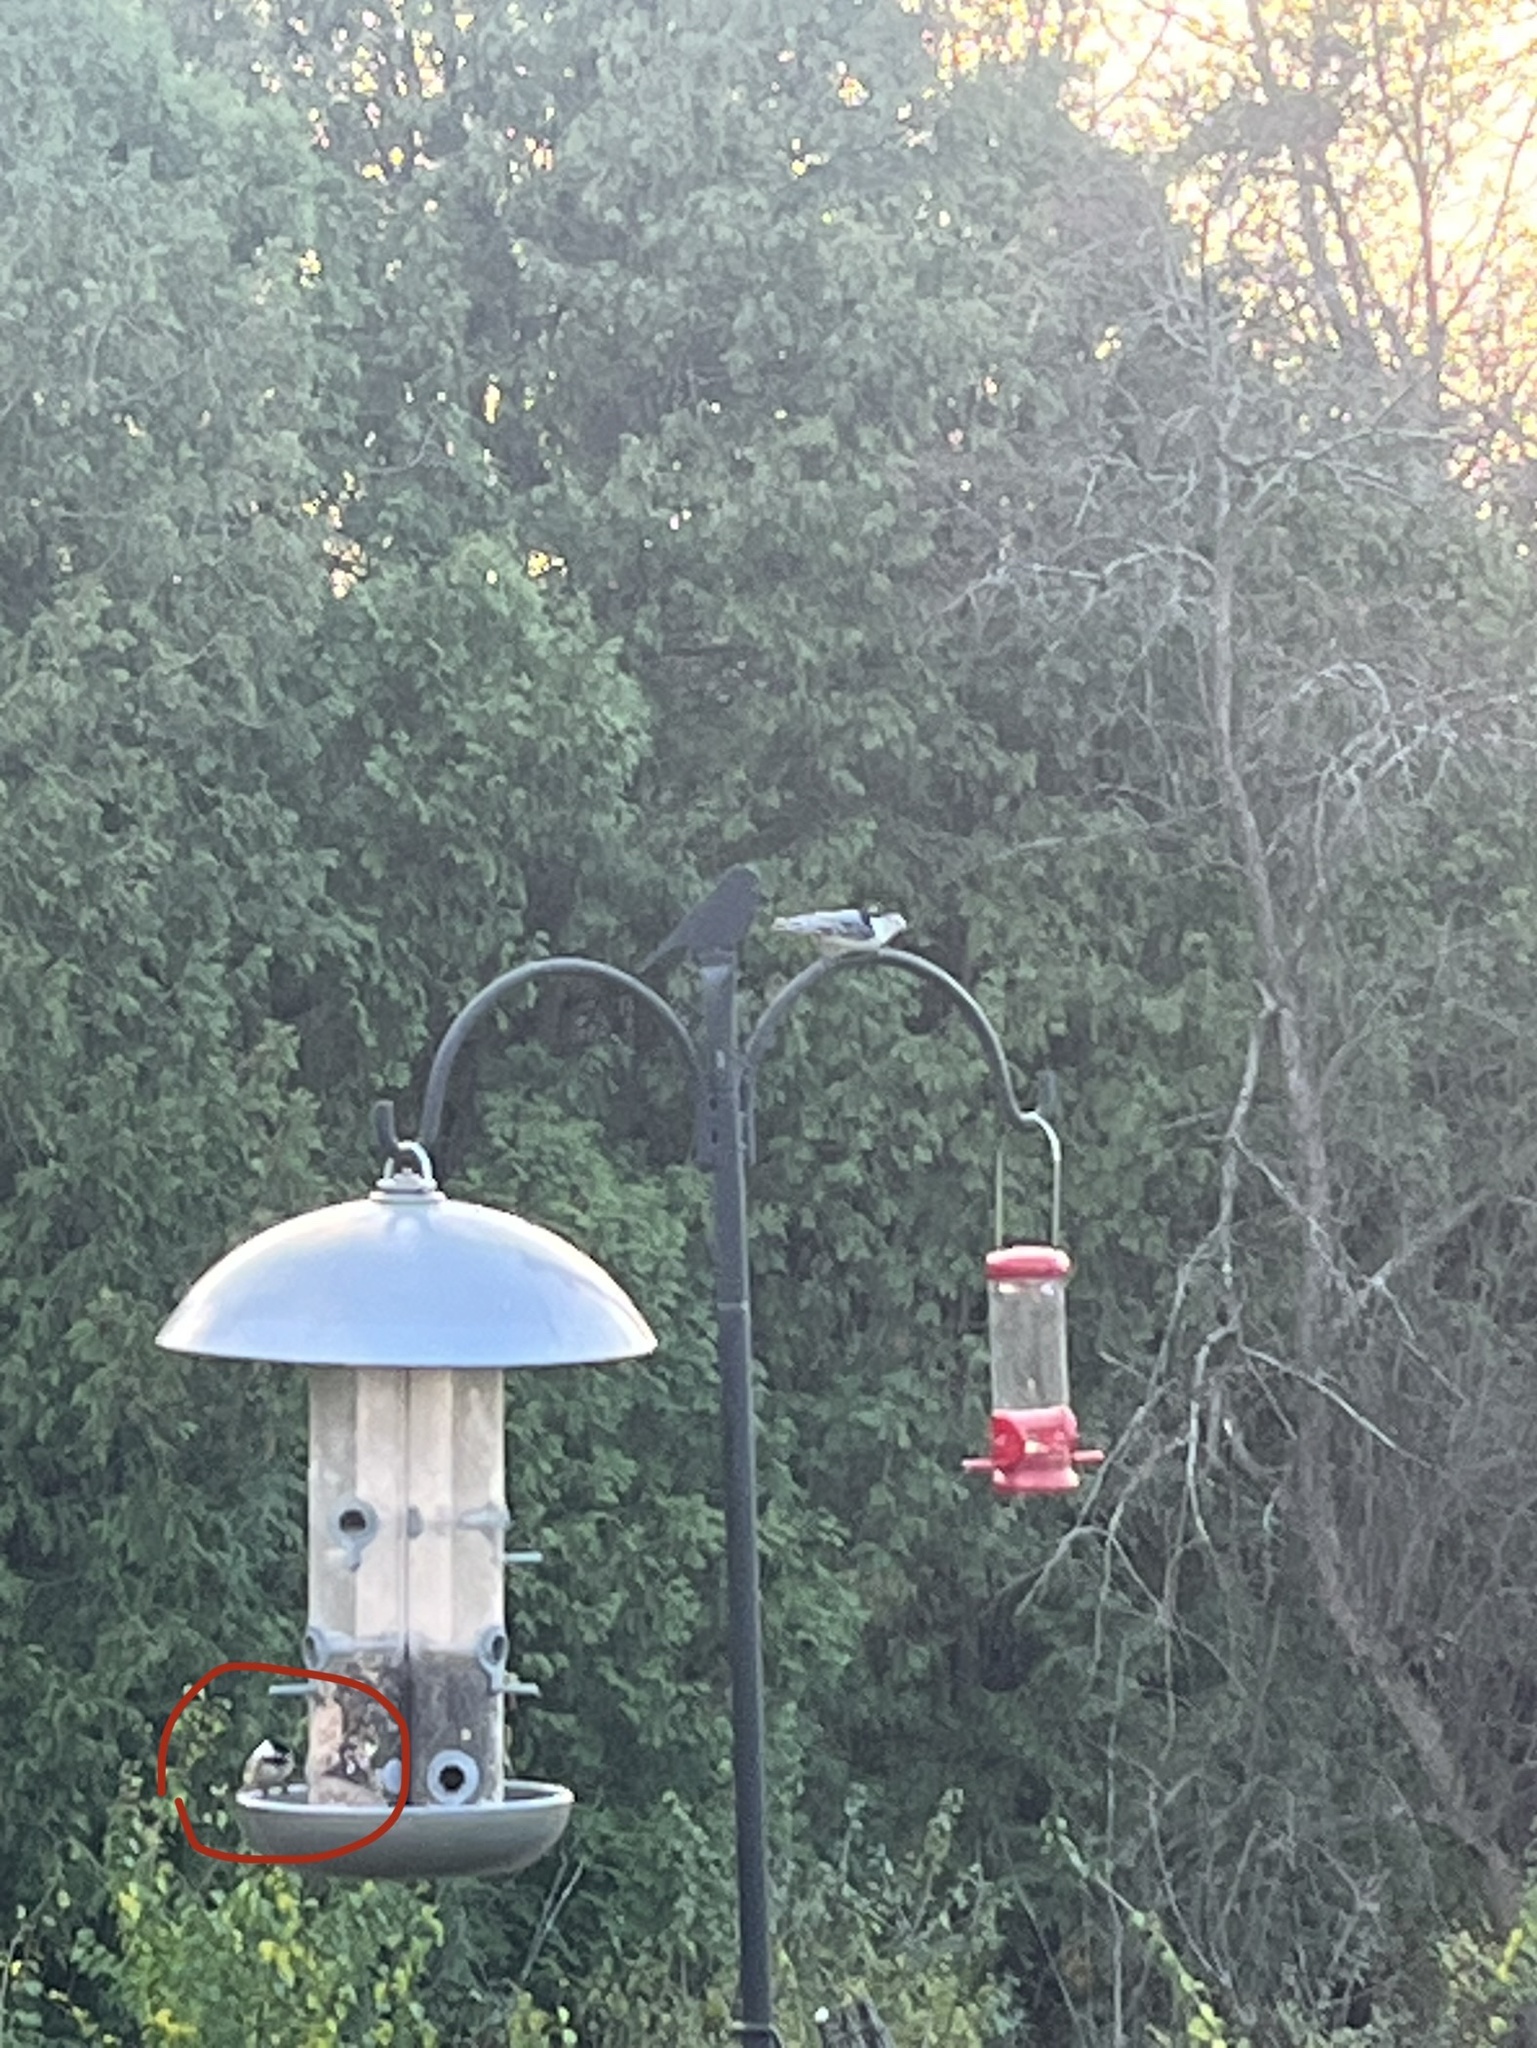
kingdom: Animalia
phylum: Chordata
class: Aves
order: Passeriformes
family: Paridae
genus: Poecile
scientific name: Poecile atricapillus
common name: Black-capped chickadee
